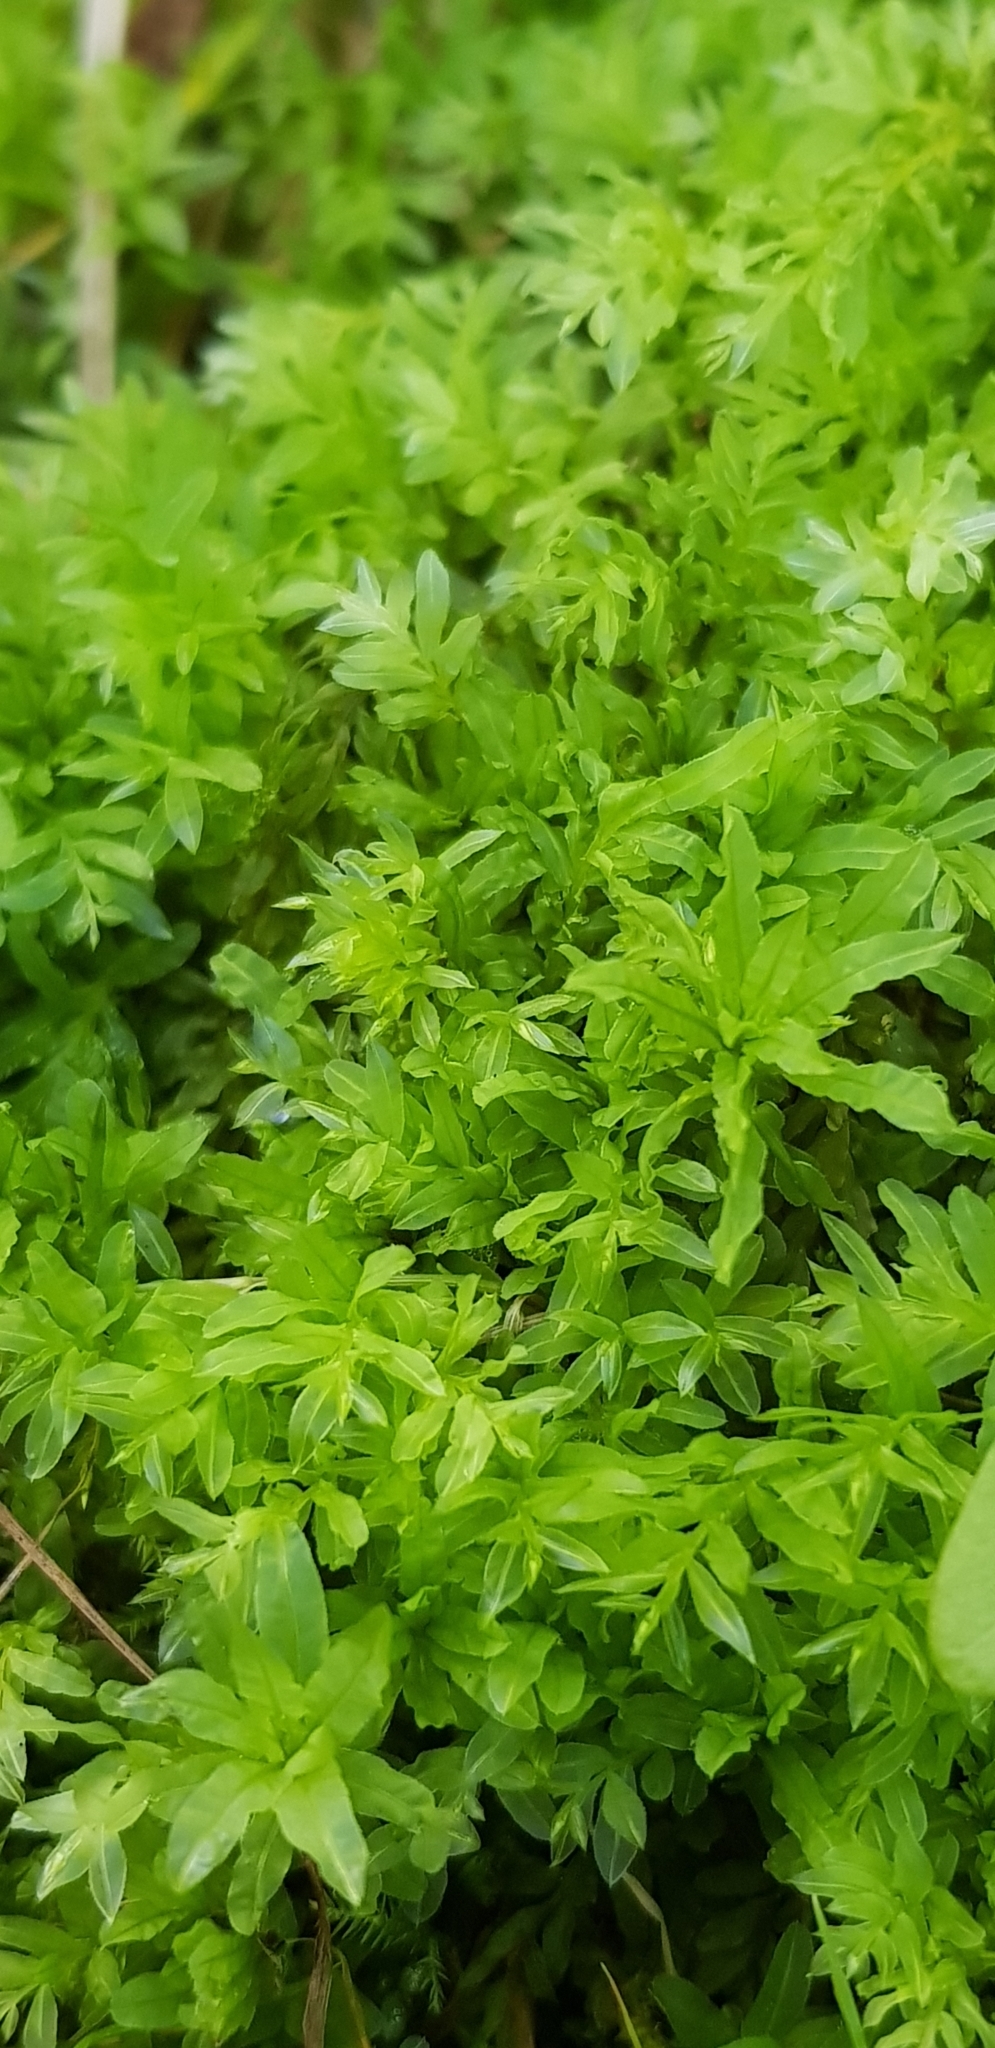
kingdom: Plantae
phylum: Bryophyta
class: Bryopsida
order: Bryales
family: Mniaceae
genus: Plagiomnium
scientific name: Plagiomnium undulatum
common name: Hart's-tongue thyme-moss
